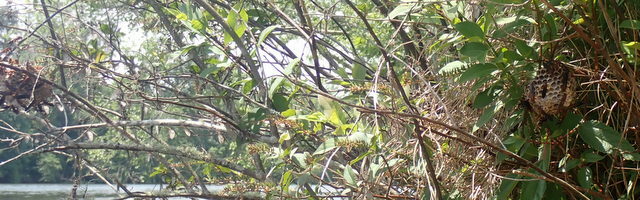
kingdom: Animalia
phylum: Arthropoda
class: Insecta
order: Hymenoptera
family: Eumenidae
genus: Polistes
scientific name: Polistes annularis
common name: Ringed paper wasp
